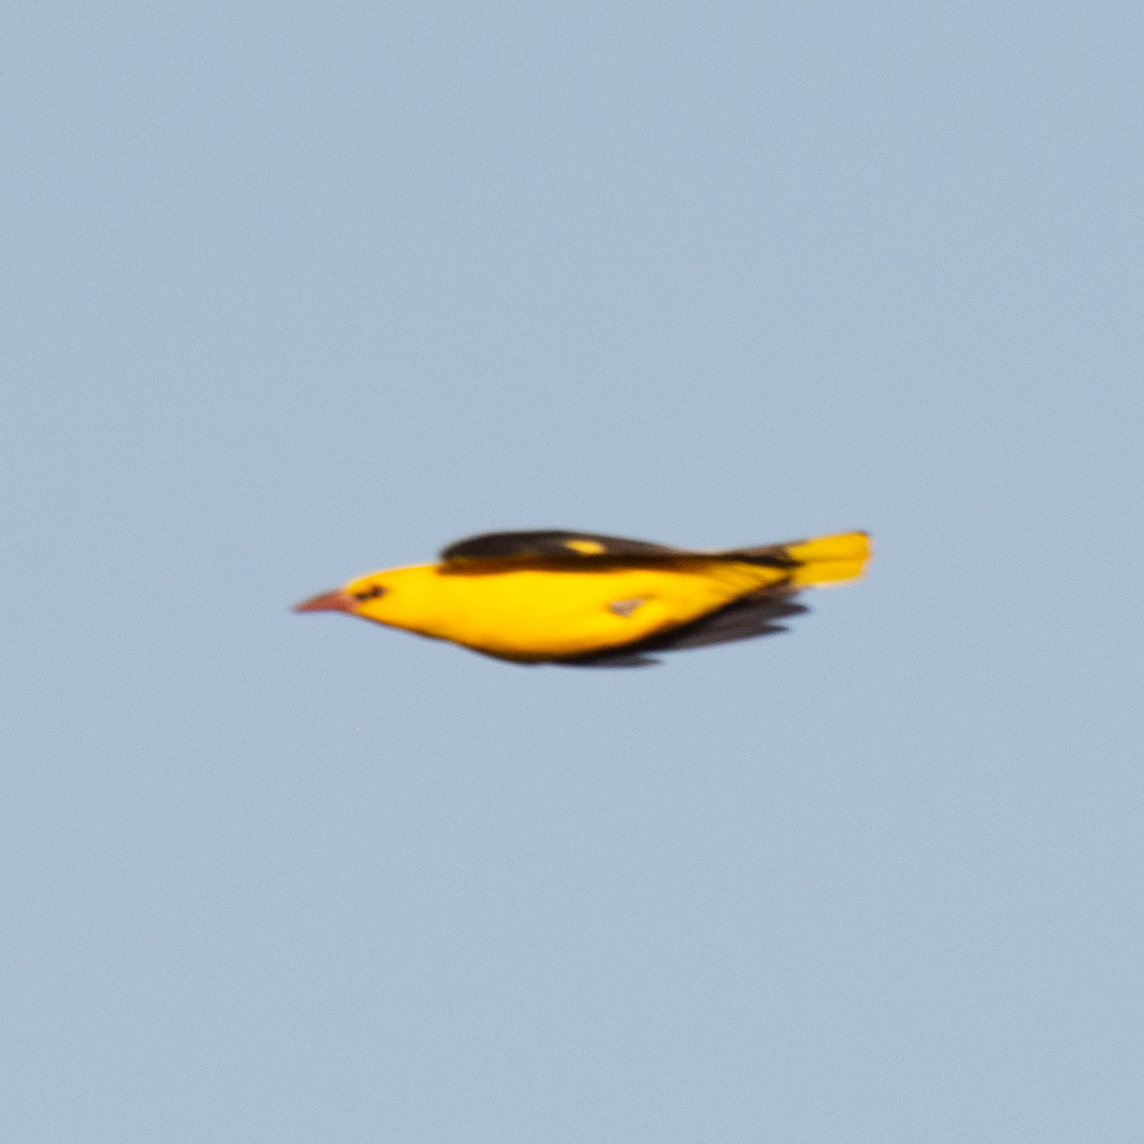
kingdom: Animalia
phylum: Chordata
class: Aves
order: Passeriformes
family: Oriolidae
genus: Oriolus
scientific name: Oriolus oriolus
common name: Eurasian golden oriole
